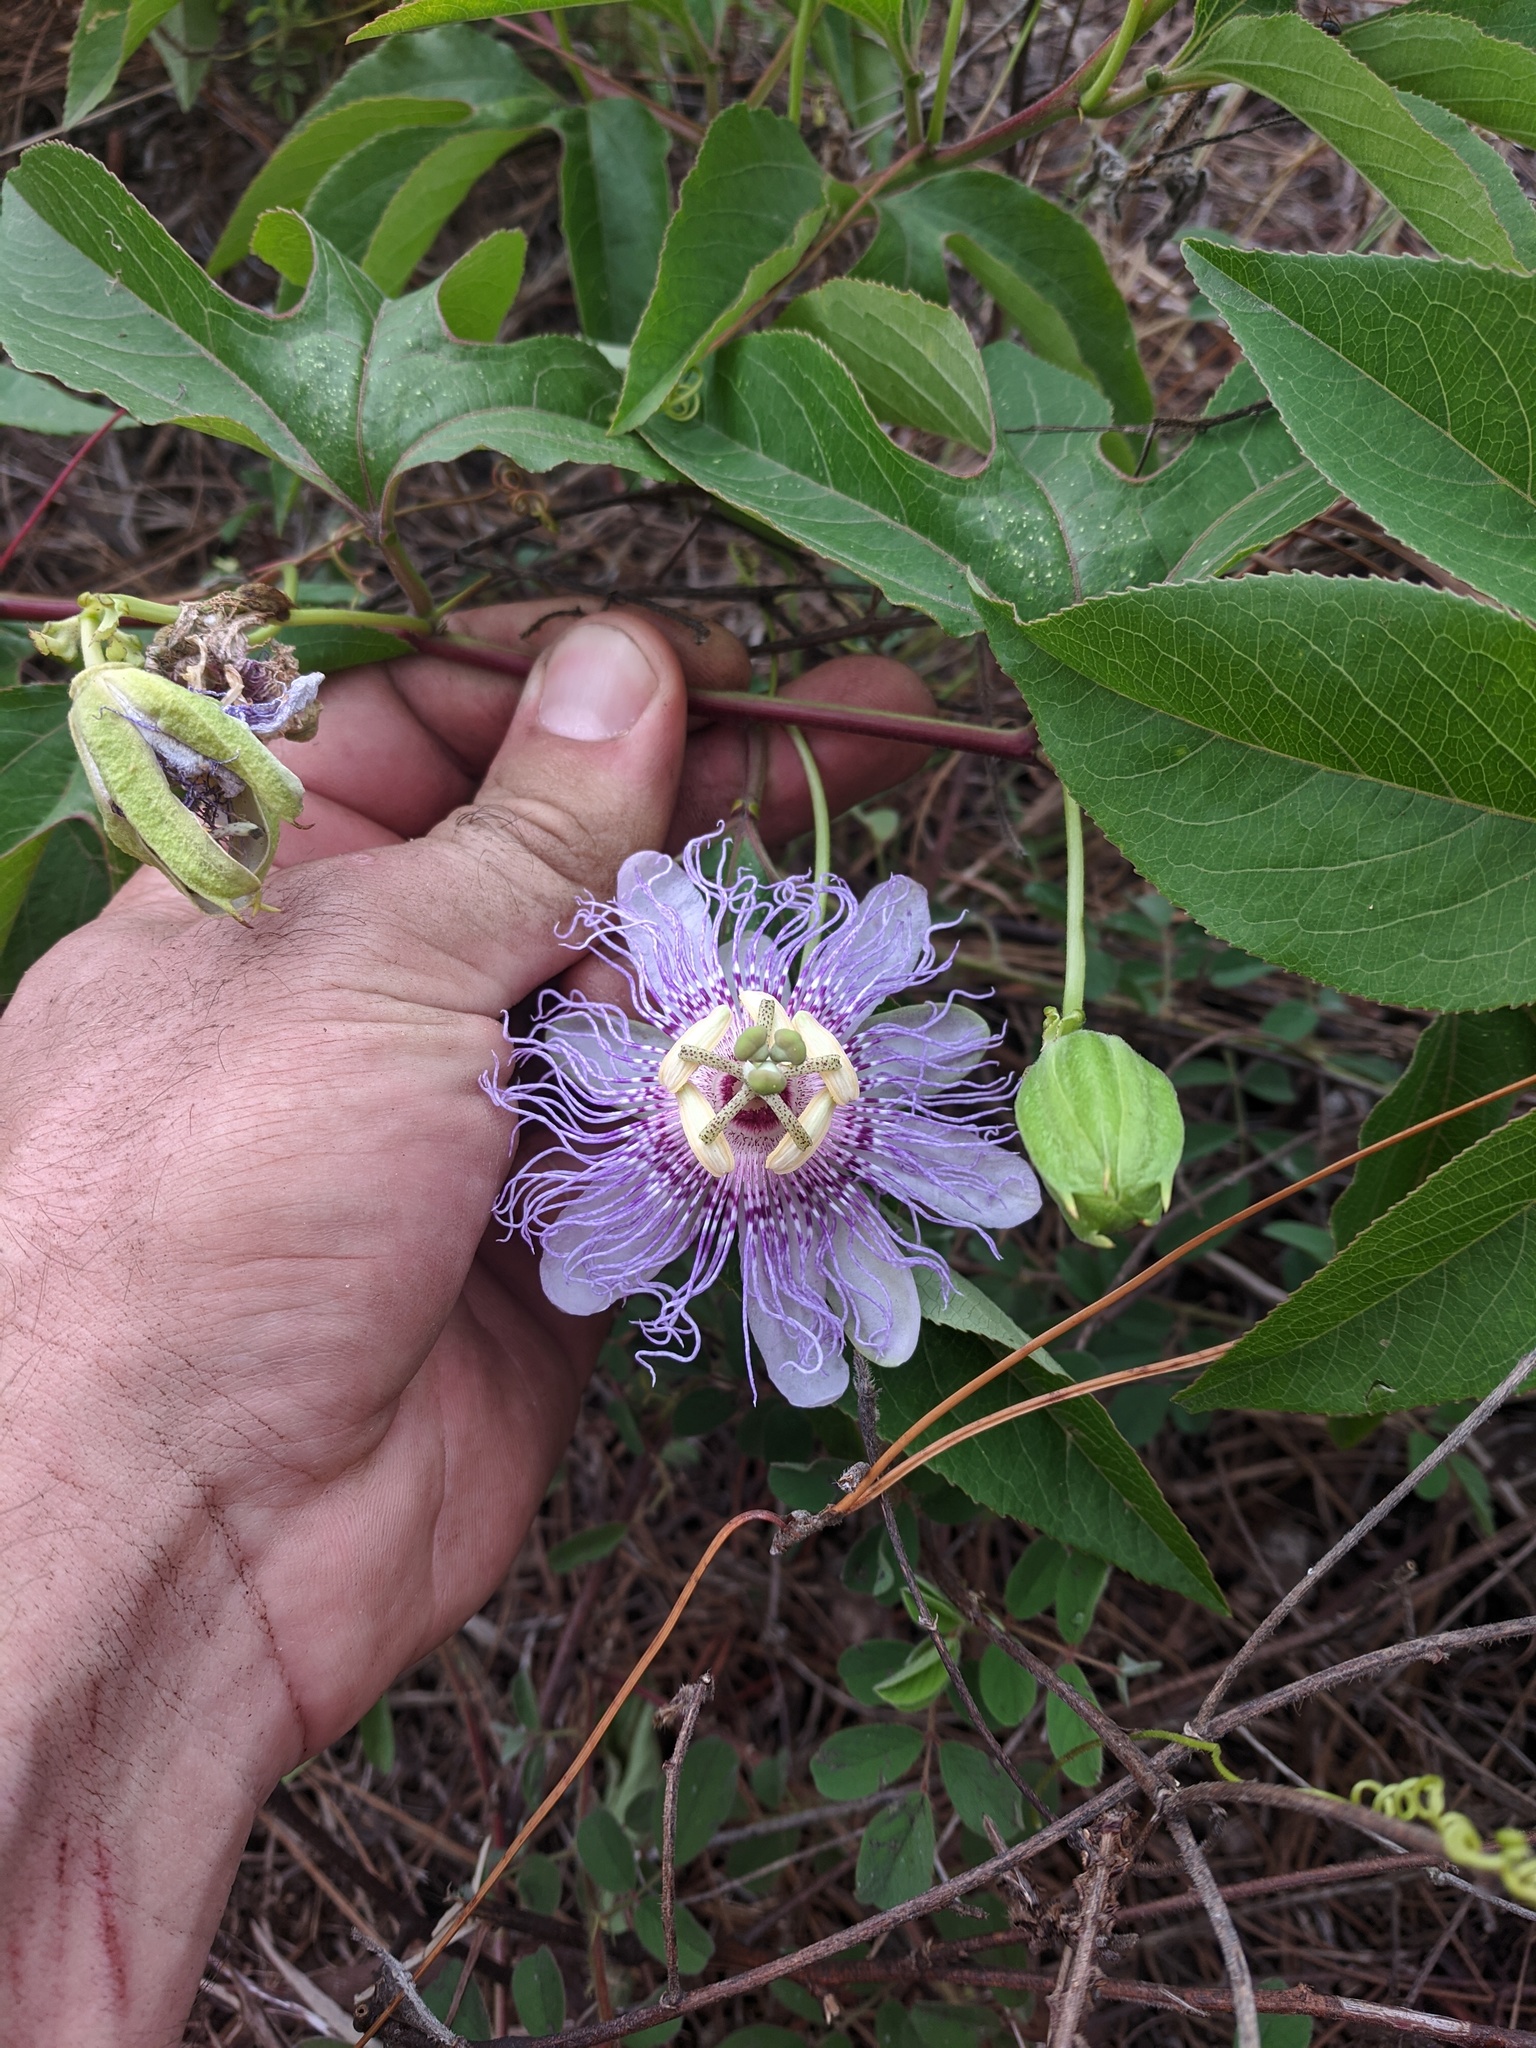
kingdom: Plantae
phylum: Tracheophyta
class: Magnoliopsida
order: Malpighiales
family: Passifloraceae
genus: Passiflora
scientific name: Passiflora incarnata
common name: Apricot-vine
